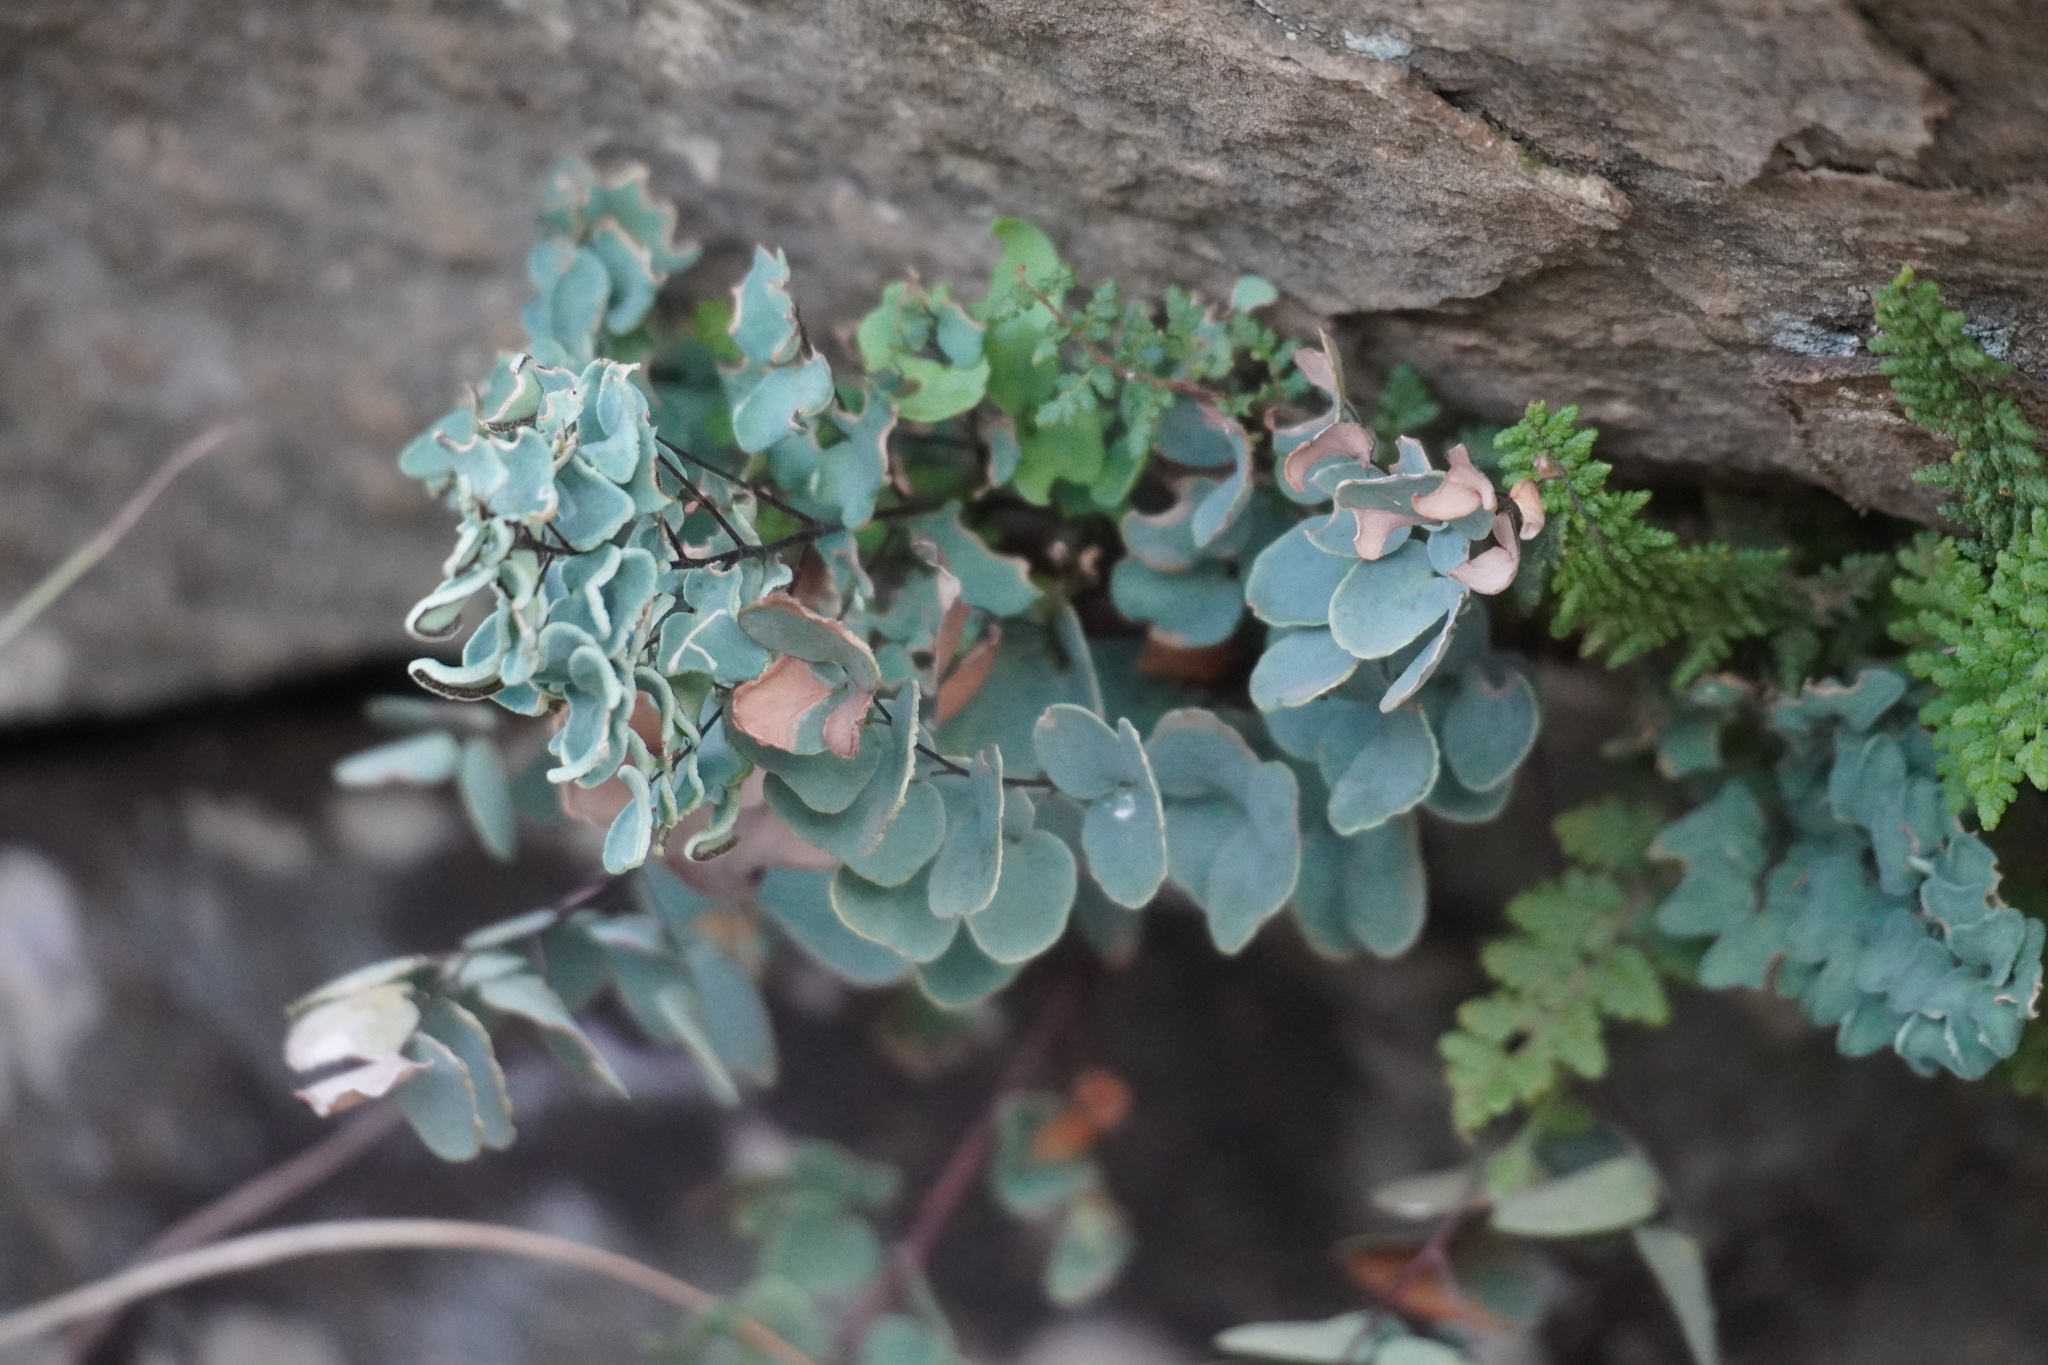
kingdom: Plantae
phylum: Tracheophyta
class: Polypodiopsida
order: Polypodiales
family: Pteridaceae
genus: Pellaea
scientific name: Pellaea calomelanos
